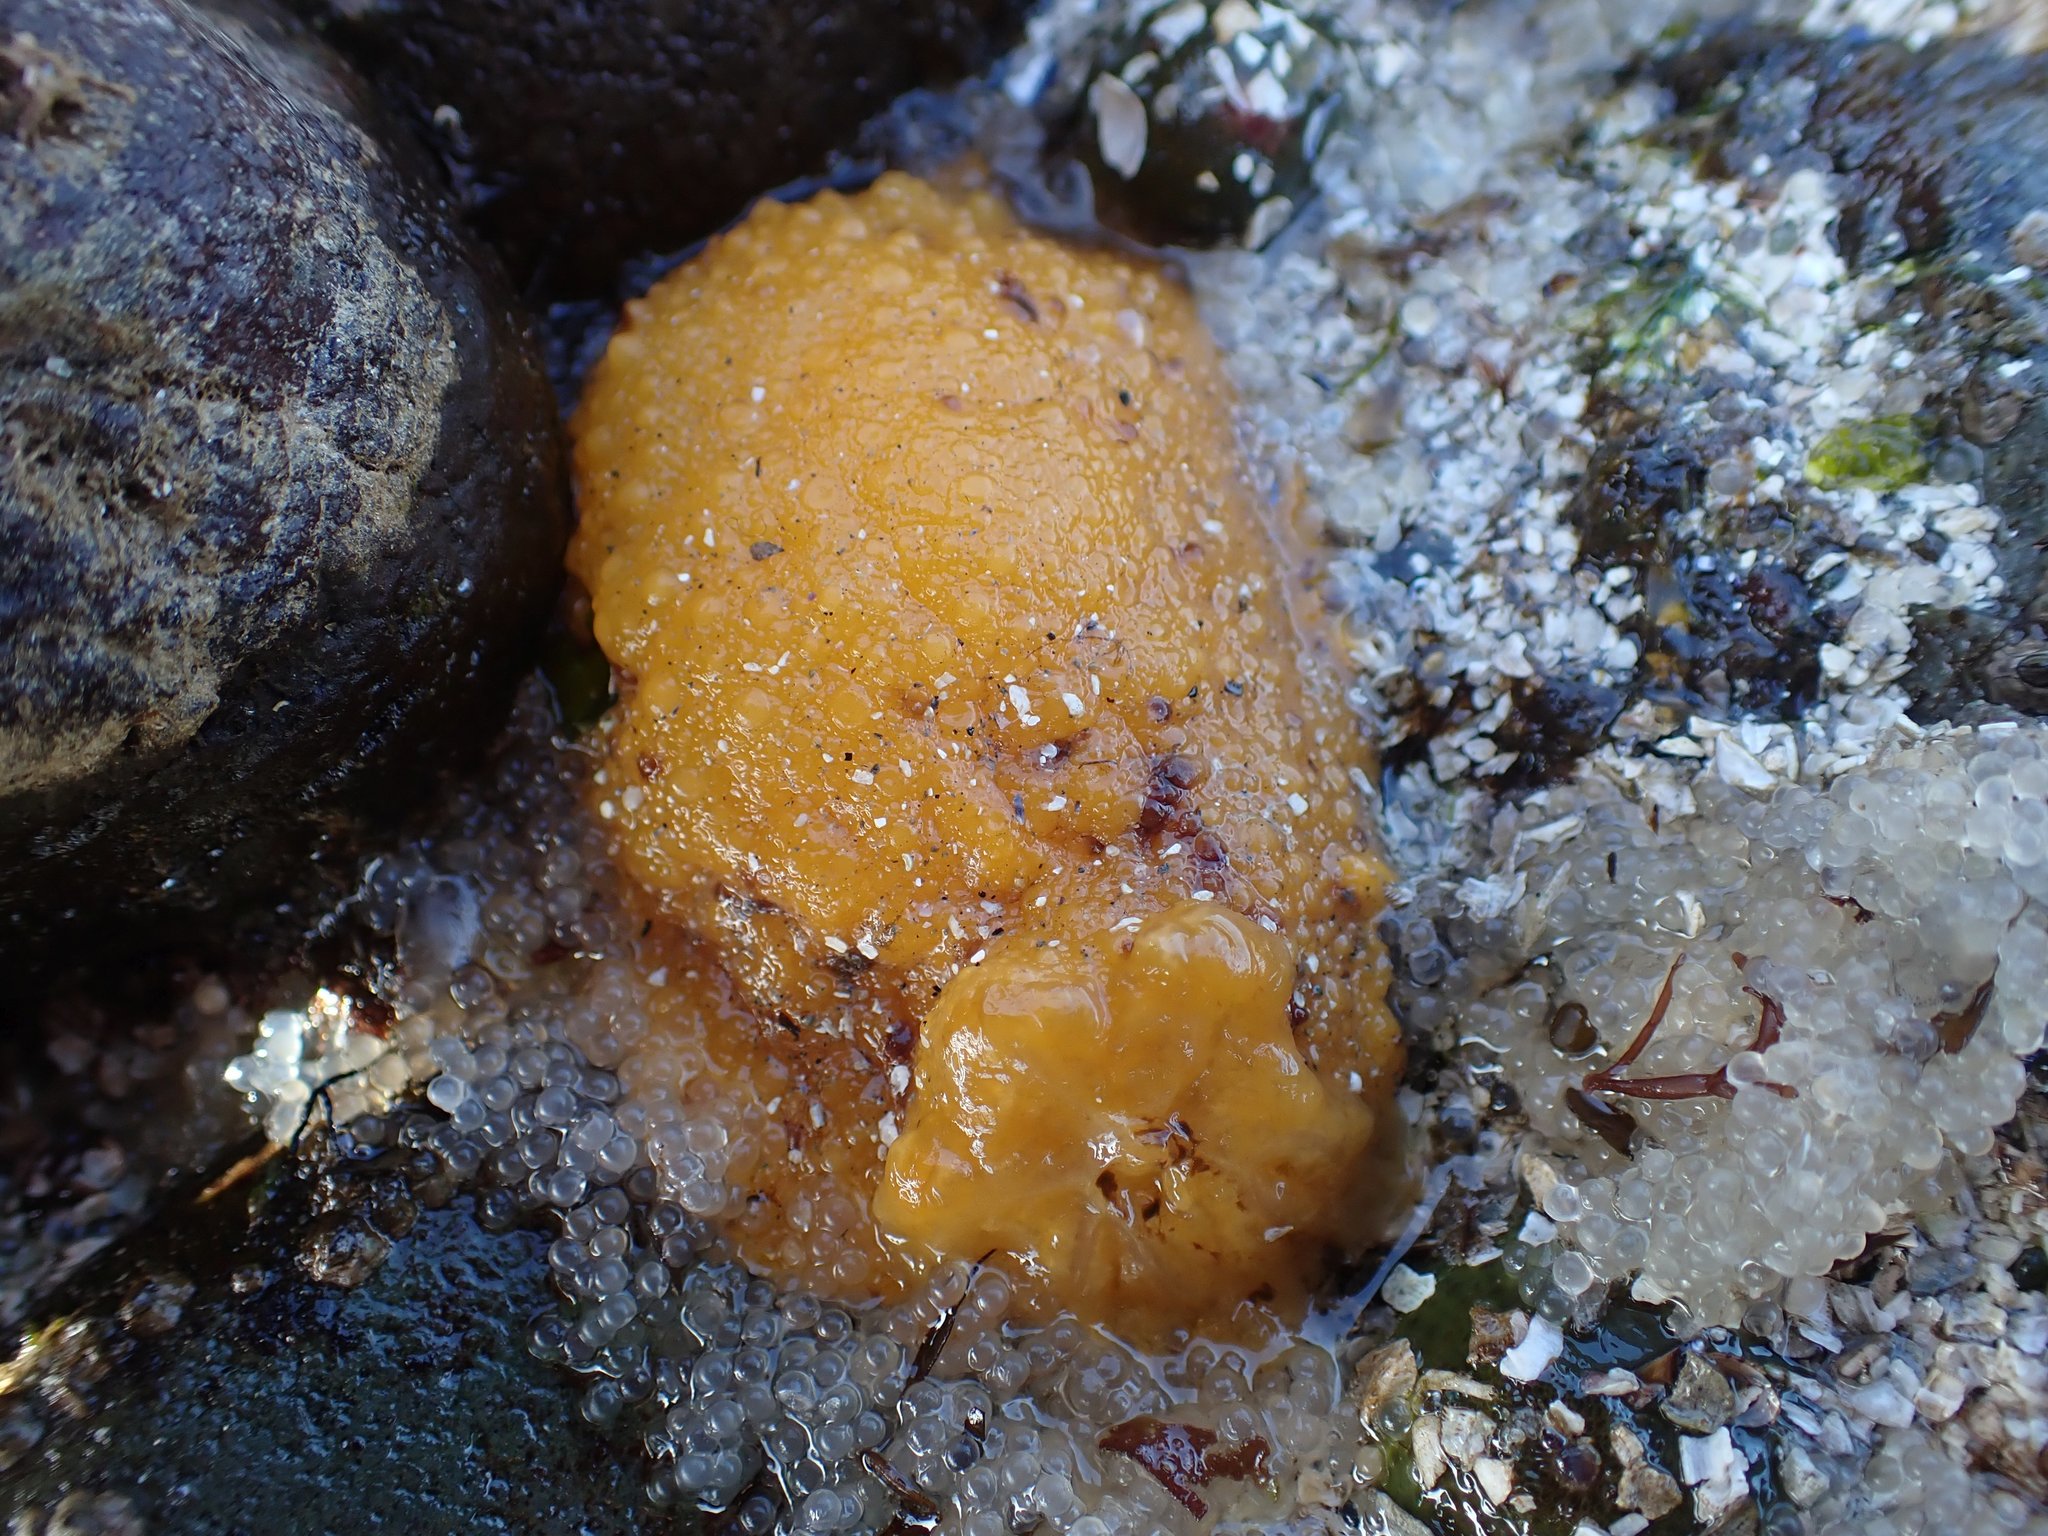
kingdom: Animalia
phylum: Mollusca
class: Gastropoda
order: Nudibranchia
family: Dorididae
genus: Doris
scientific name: Doris montereyensis
